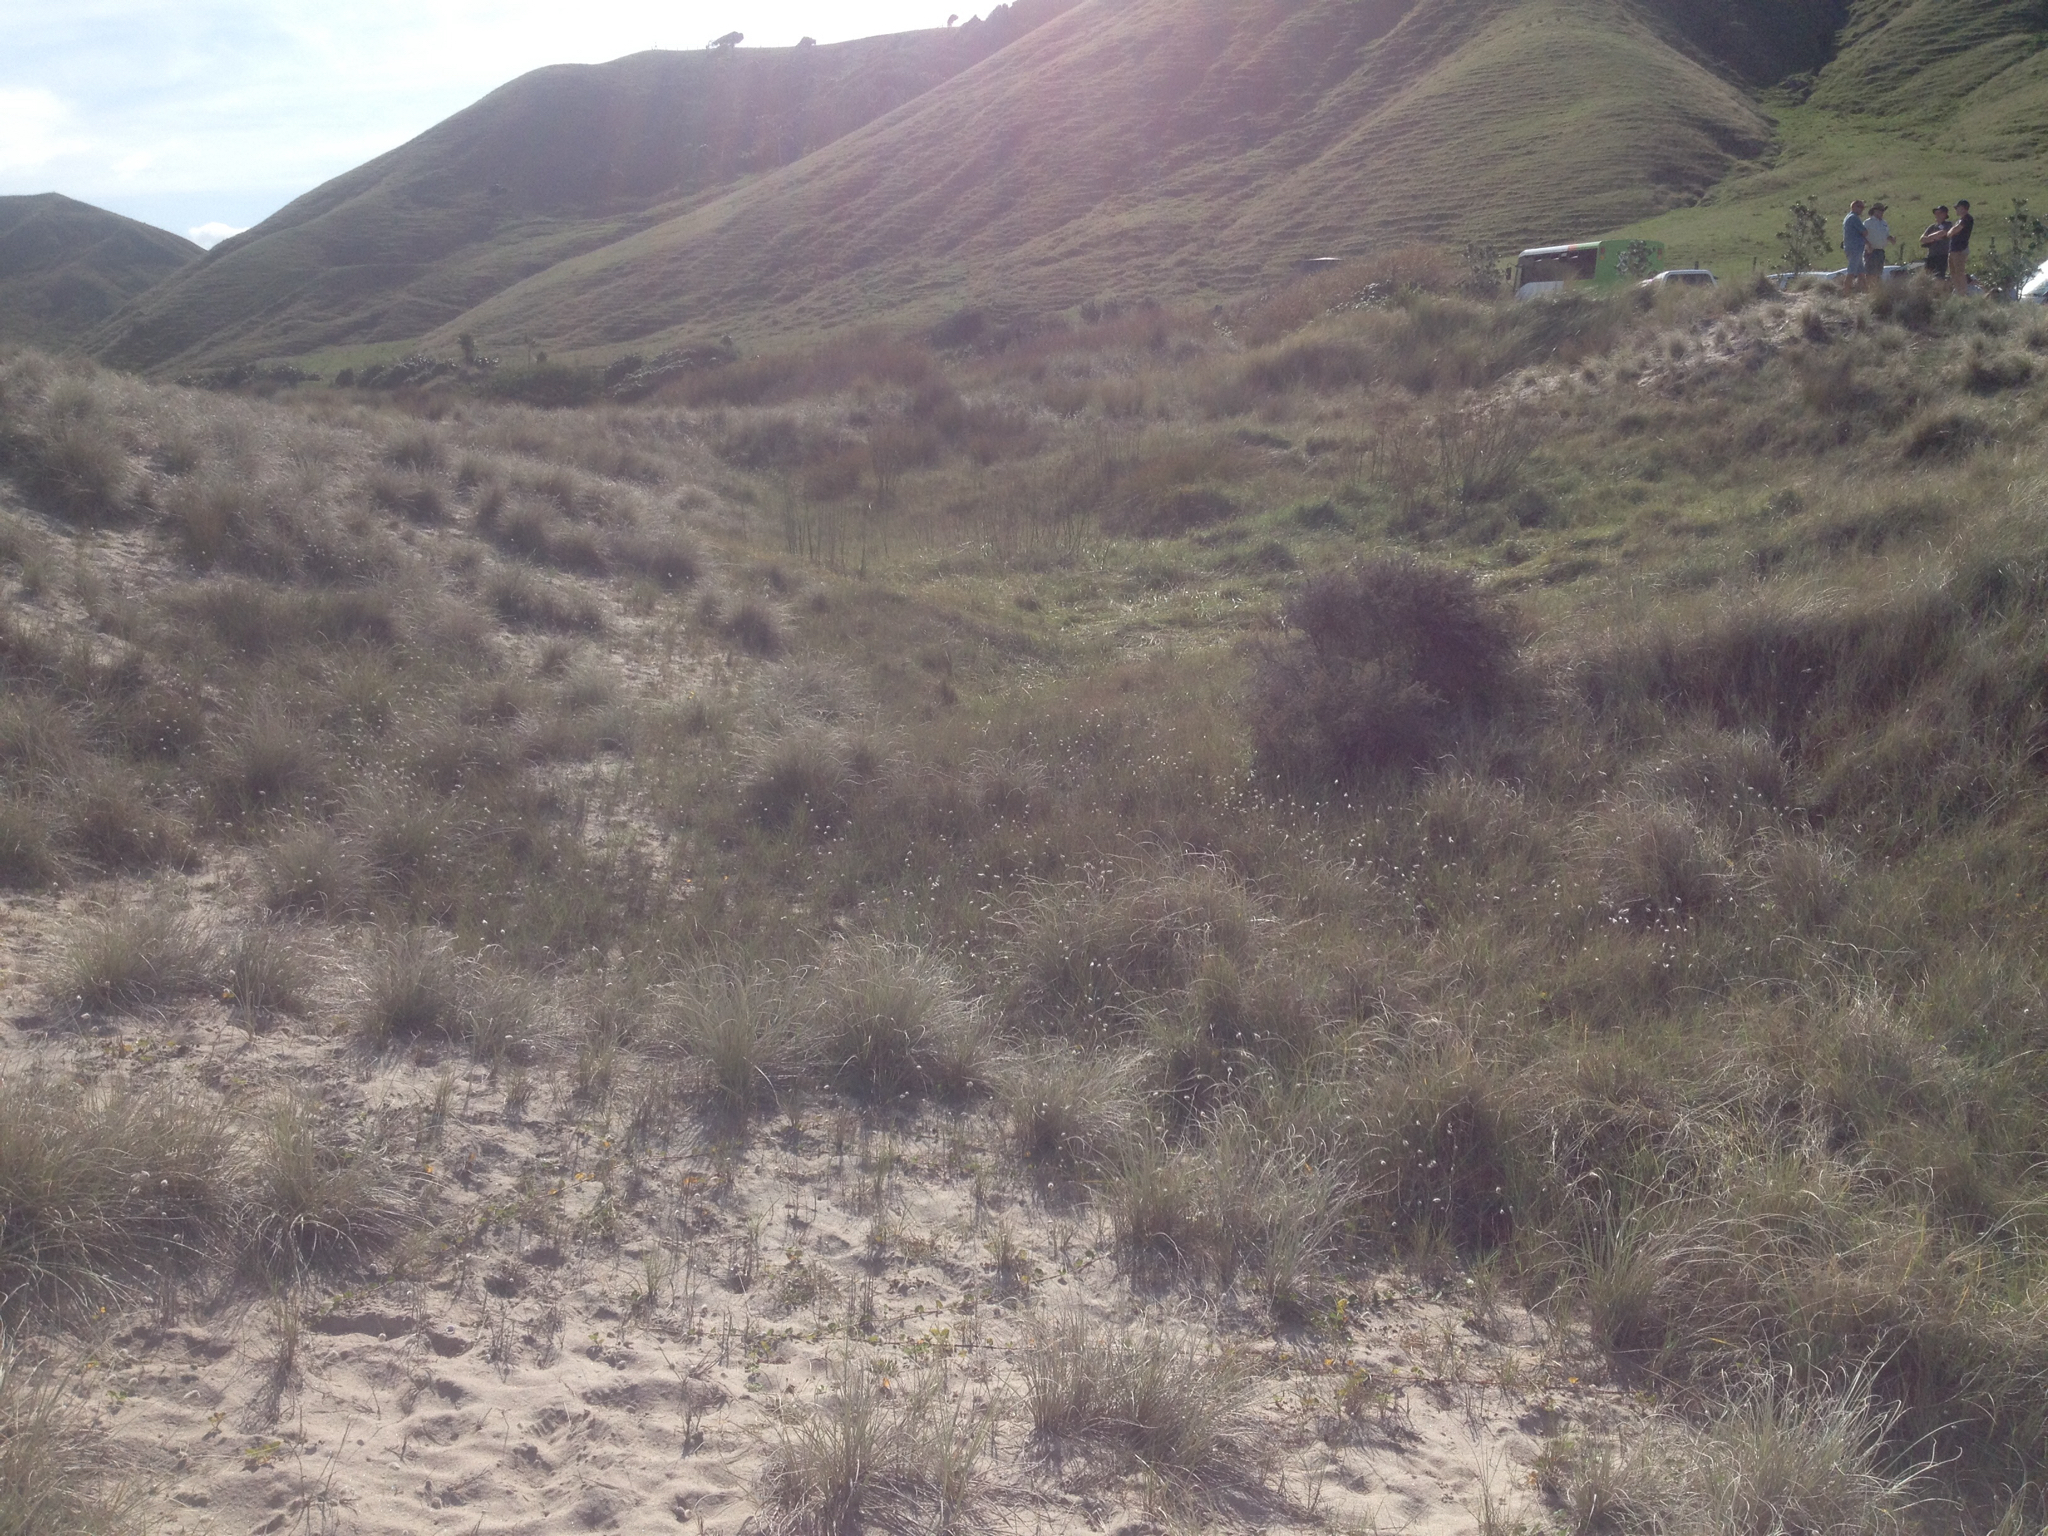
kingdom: Plantae
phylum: Tracheophyta
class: Liliopsida
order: Poales
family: Poaceae
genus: Spinifex
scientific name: Spinifex sericeus
